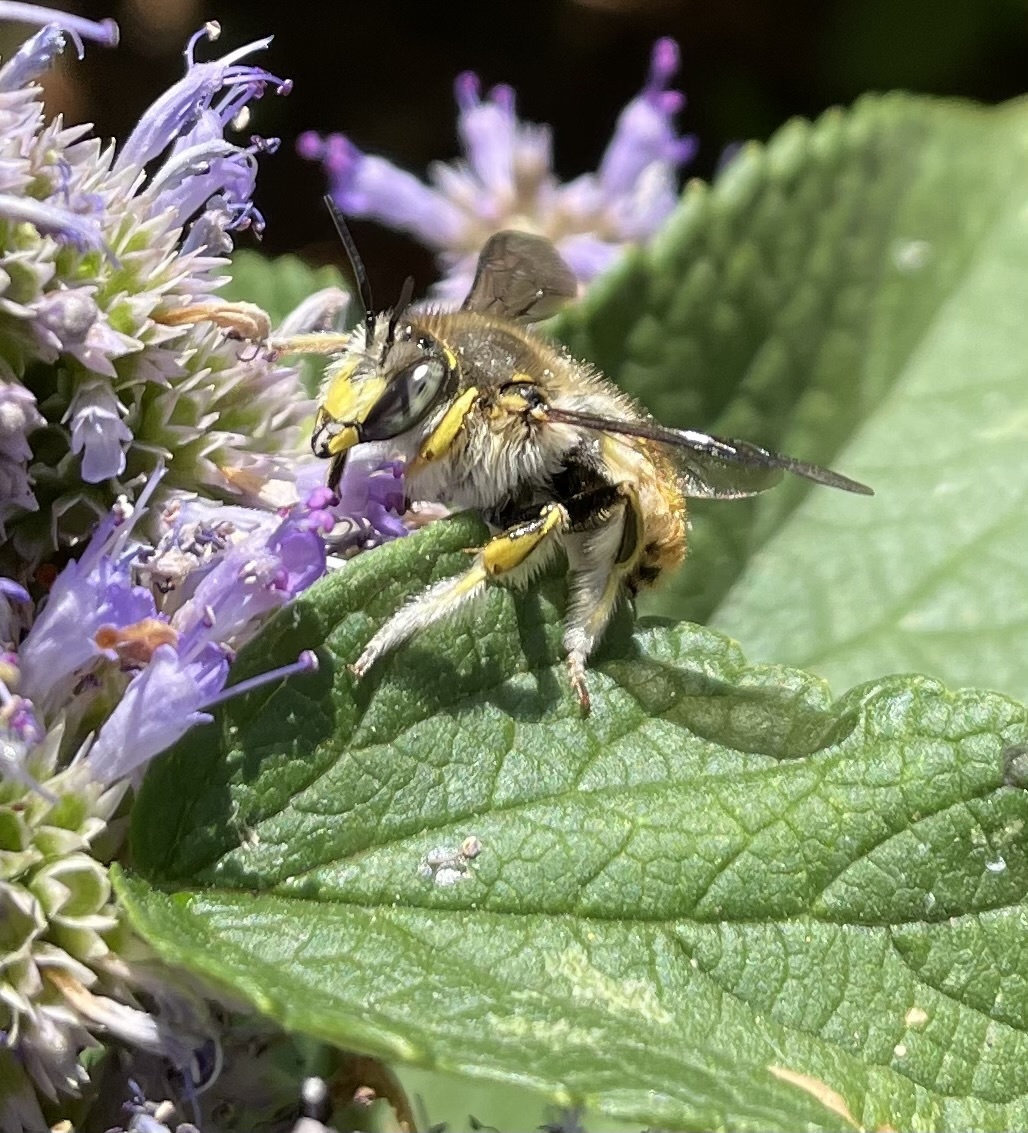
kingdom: Animalia
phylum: Arthropoda
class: Insecta
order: Hymenoptera
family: Megachilidae
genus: Anthidium
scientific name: Anthidium manicatum
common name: Wool carder bee
